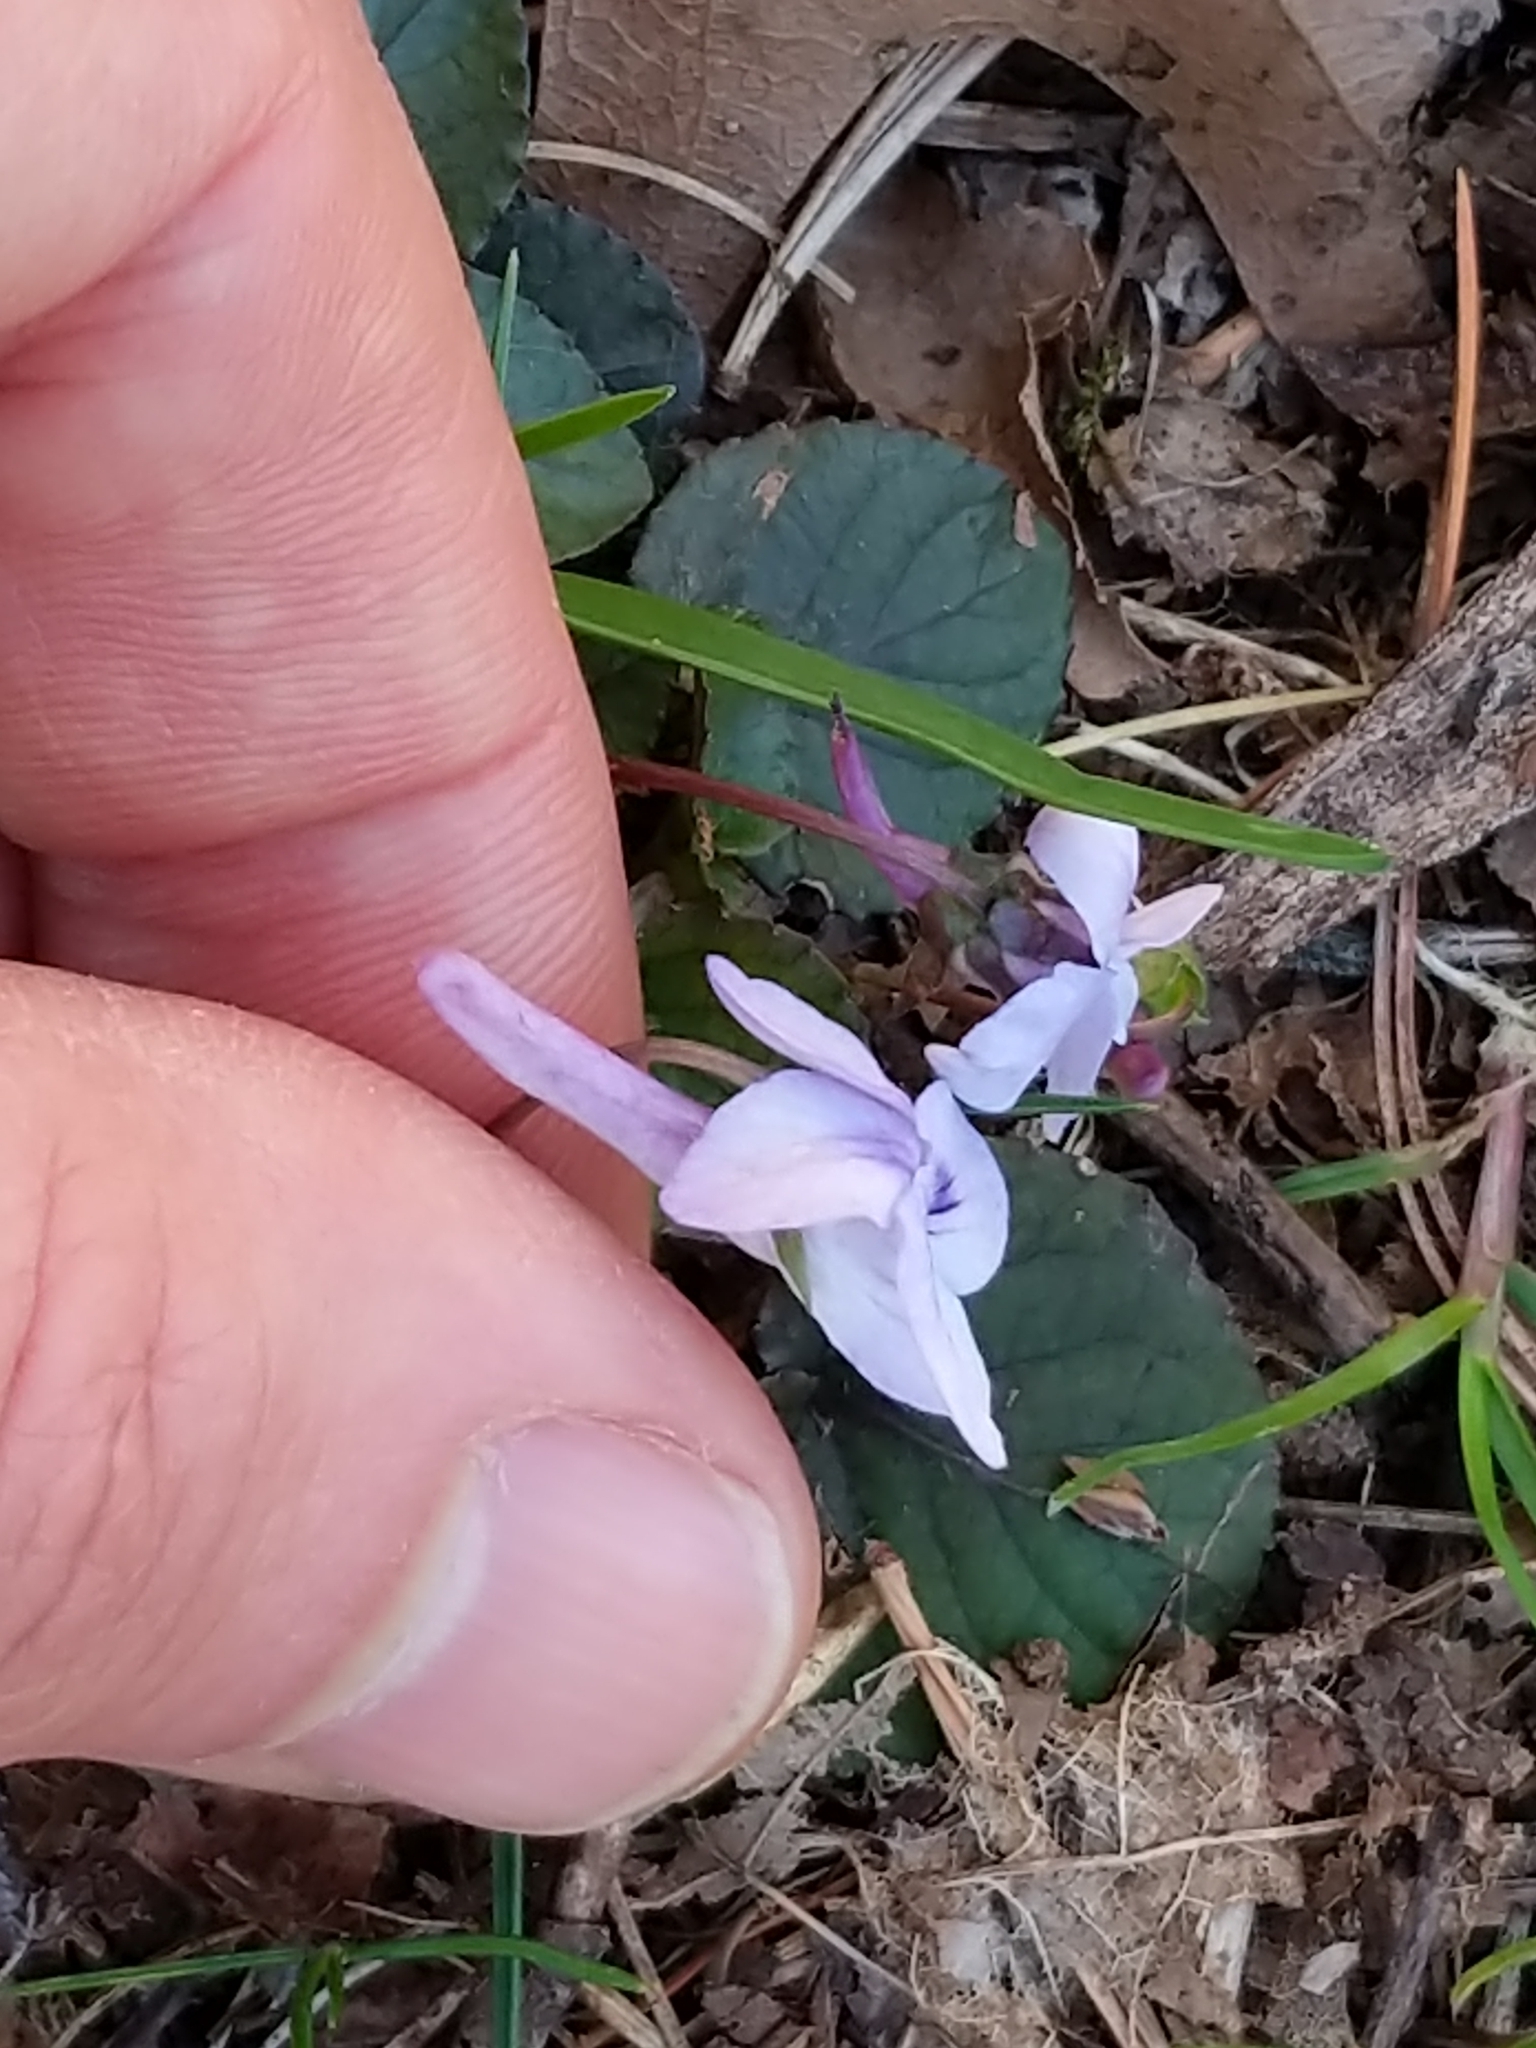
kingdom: Plantae
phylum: Tracheophyta
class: Magnoliopsida
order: Malpighiales
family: Violaceae
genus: Viola
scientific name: Viola rostrata
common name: Long-spur violet
